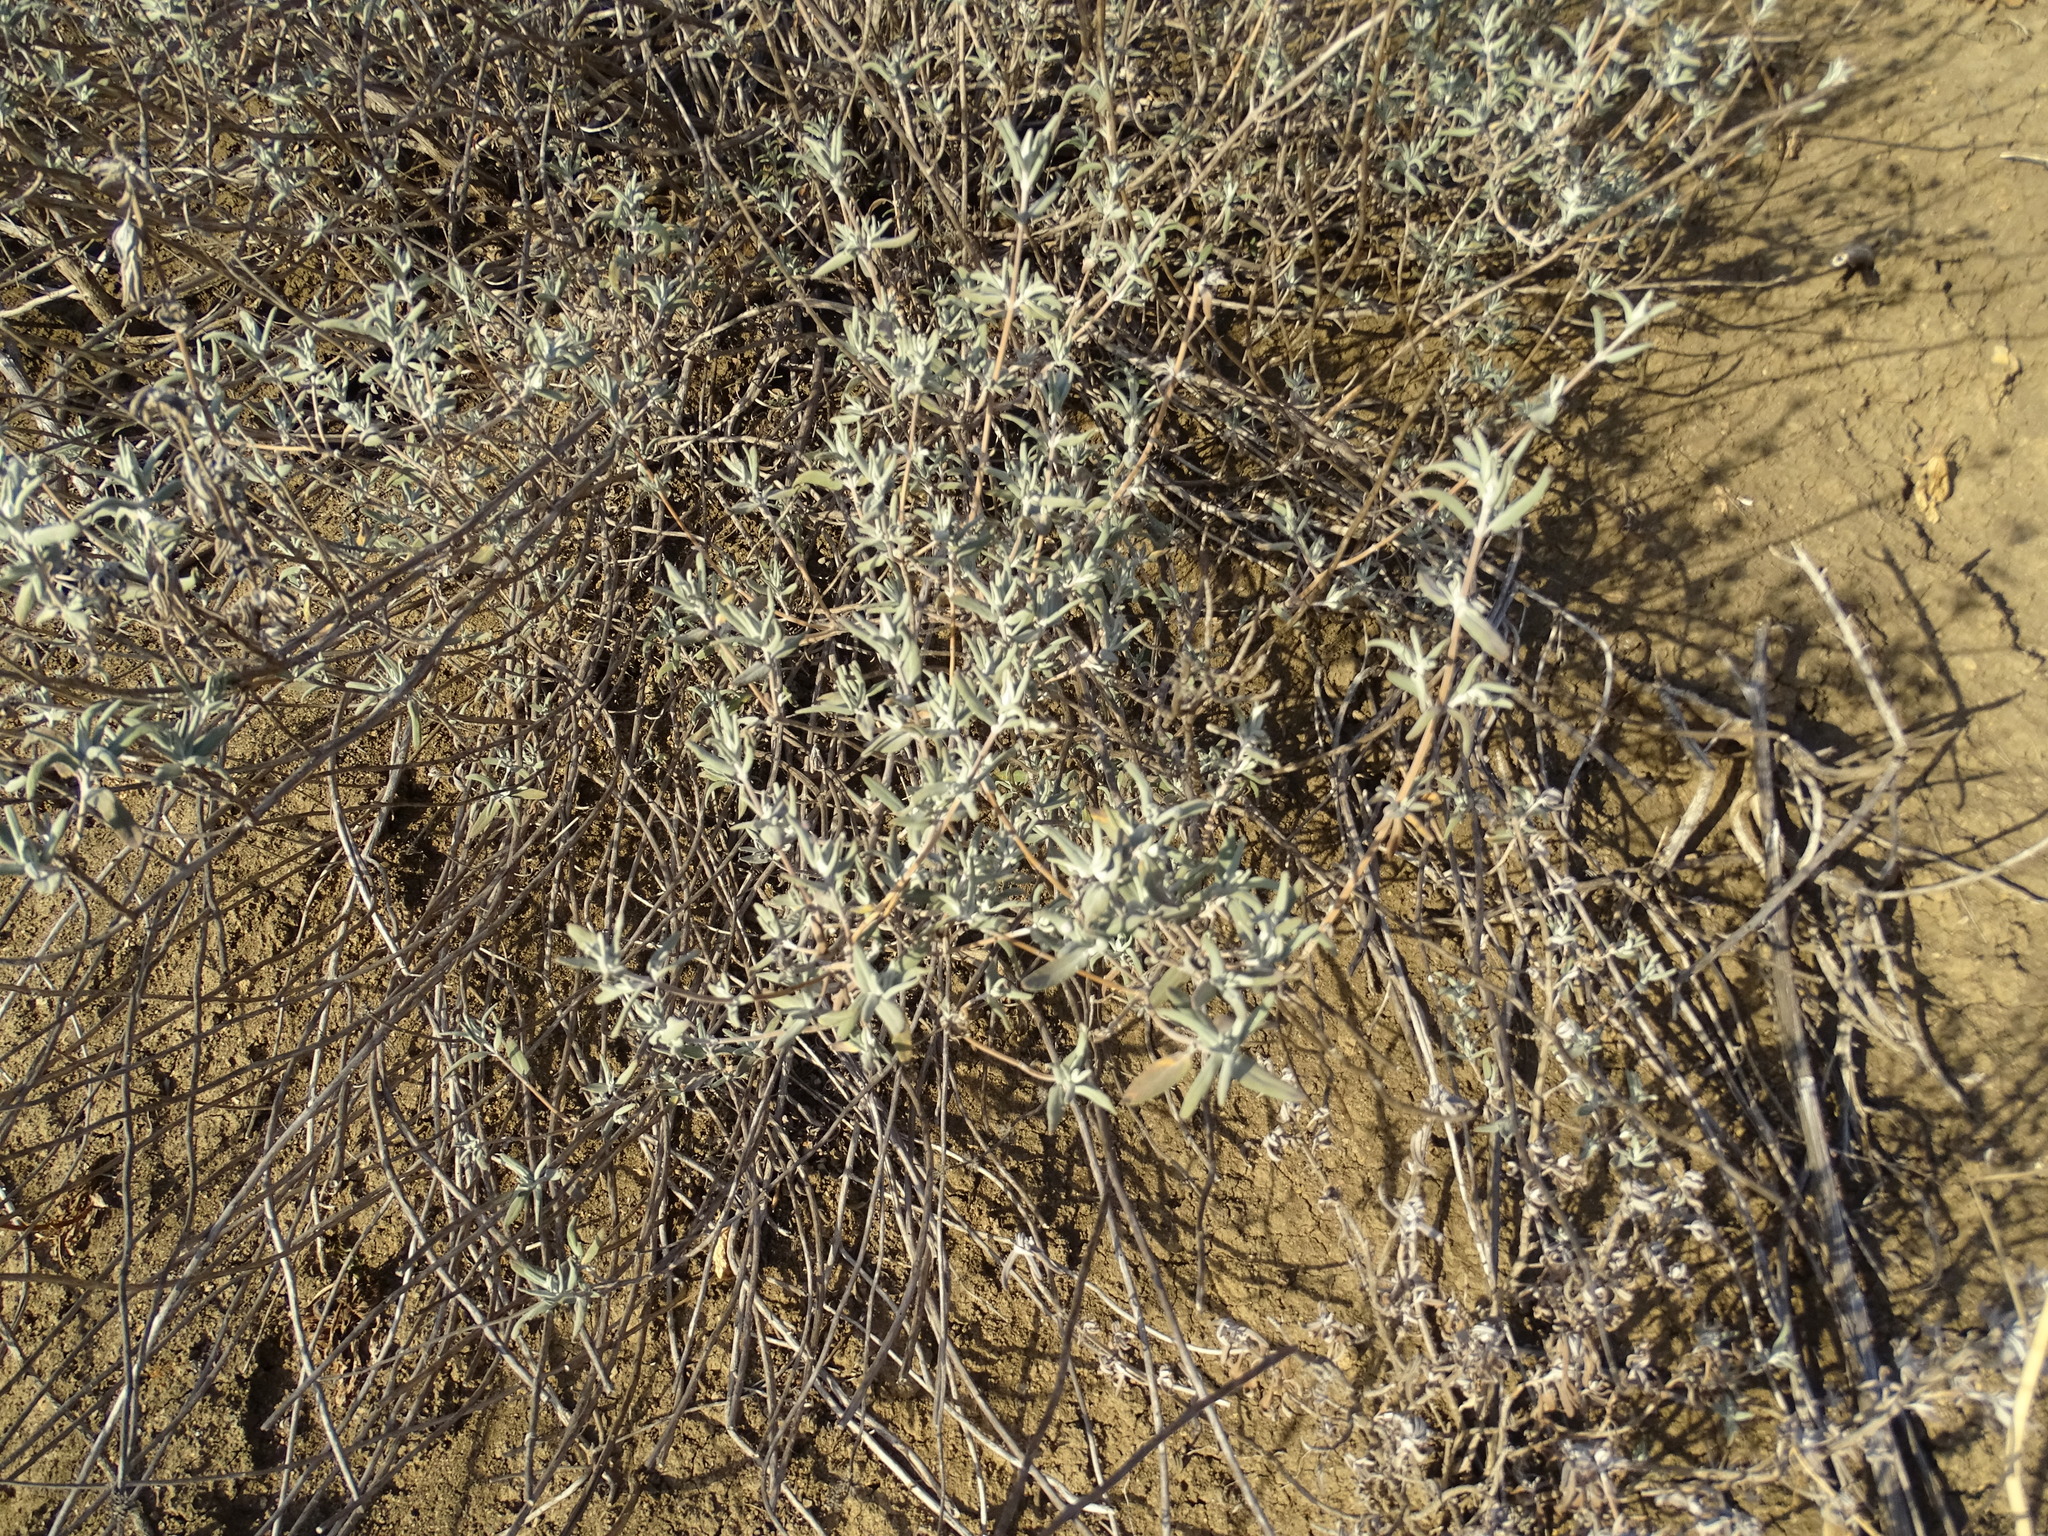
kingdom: Plantae
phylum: Tracheophyta
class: Magnoliopsida
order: Lamiales
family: Lamiaceae
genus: Salvia
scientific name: Salvia leucophylla
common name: Purple sage
